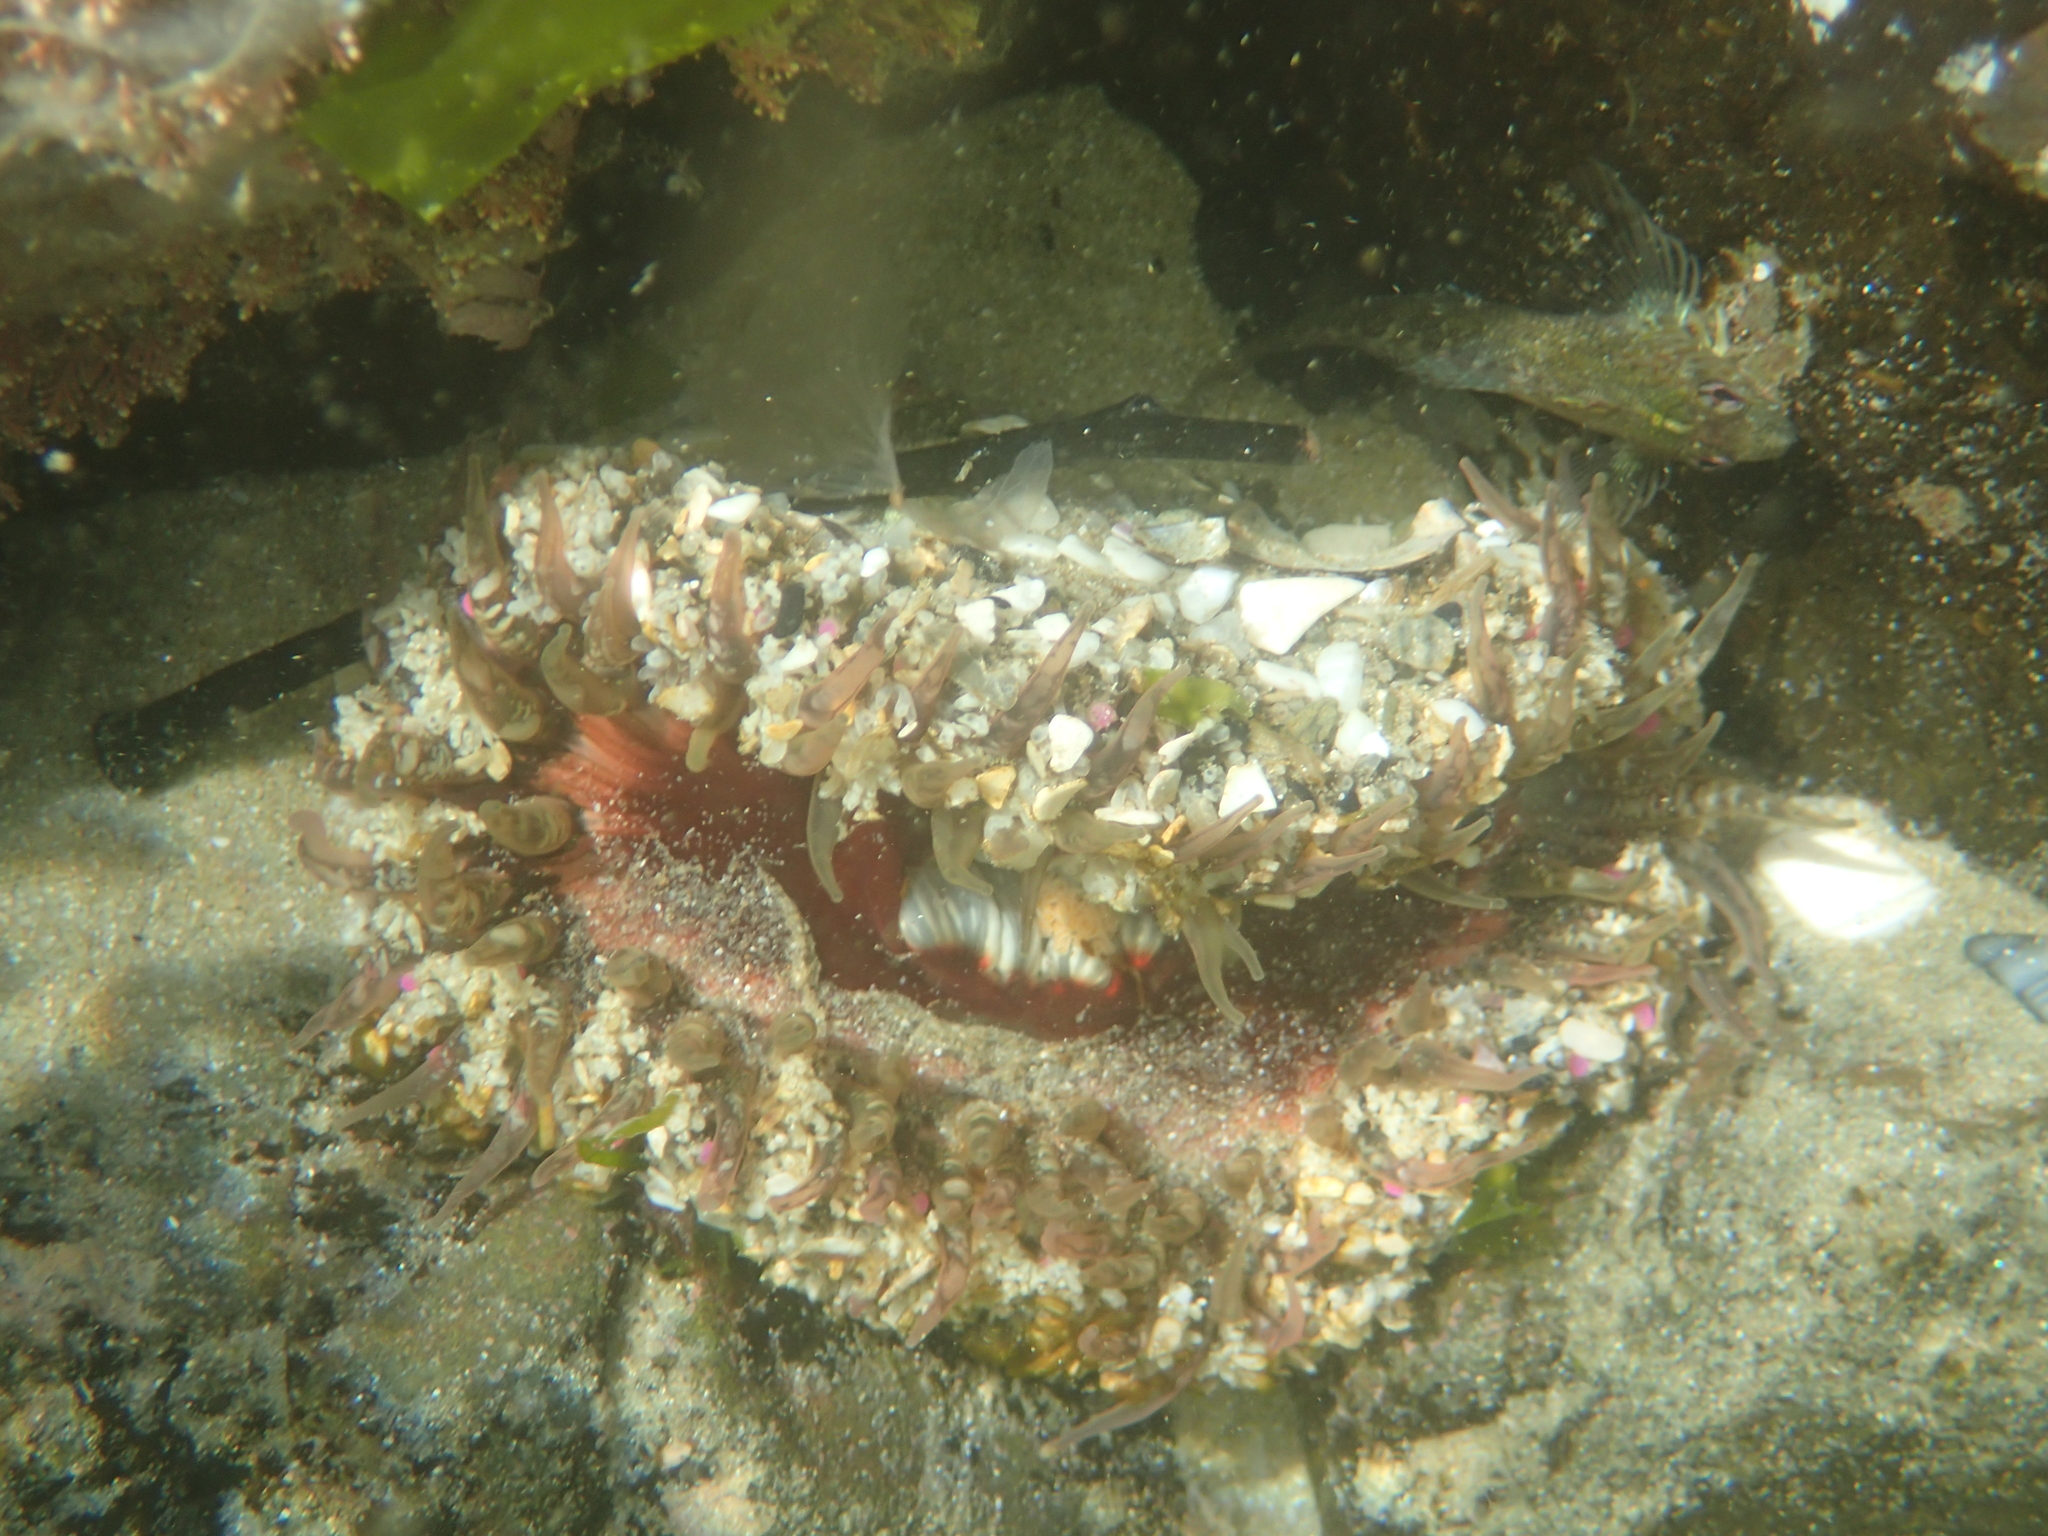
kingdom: Animalia
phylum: Cnidaria
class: Anthozoa
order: Actiniaria
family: Actiniidae
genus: Oulactis
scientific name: Oulactis muscosa
